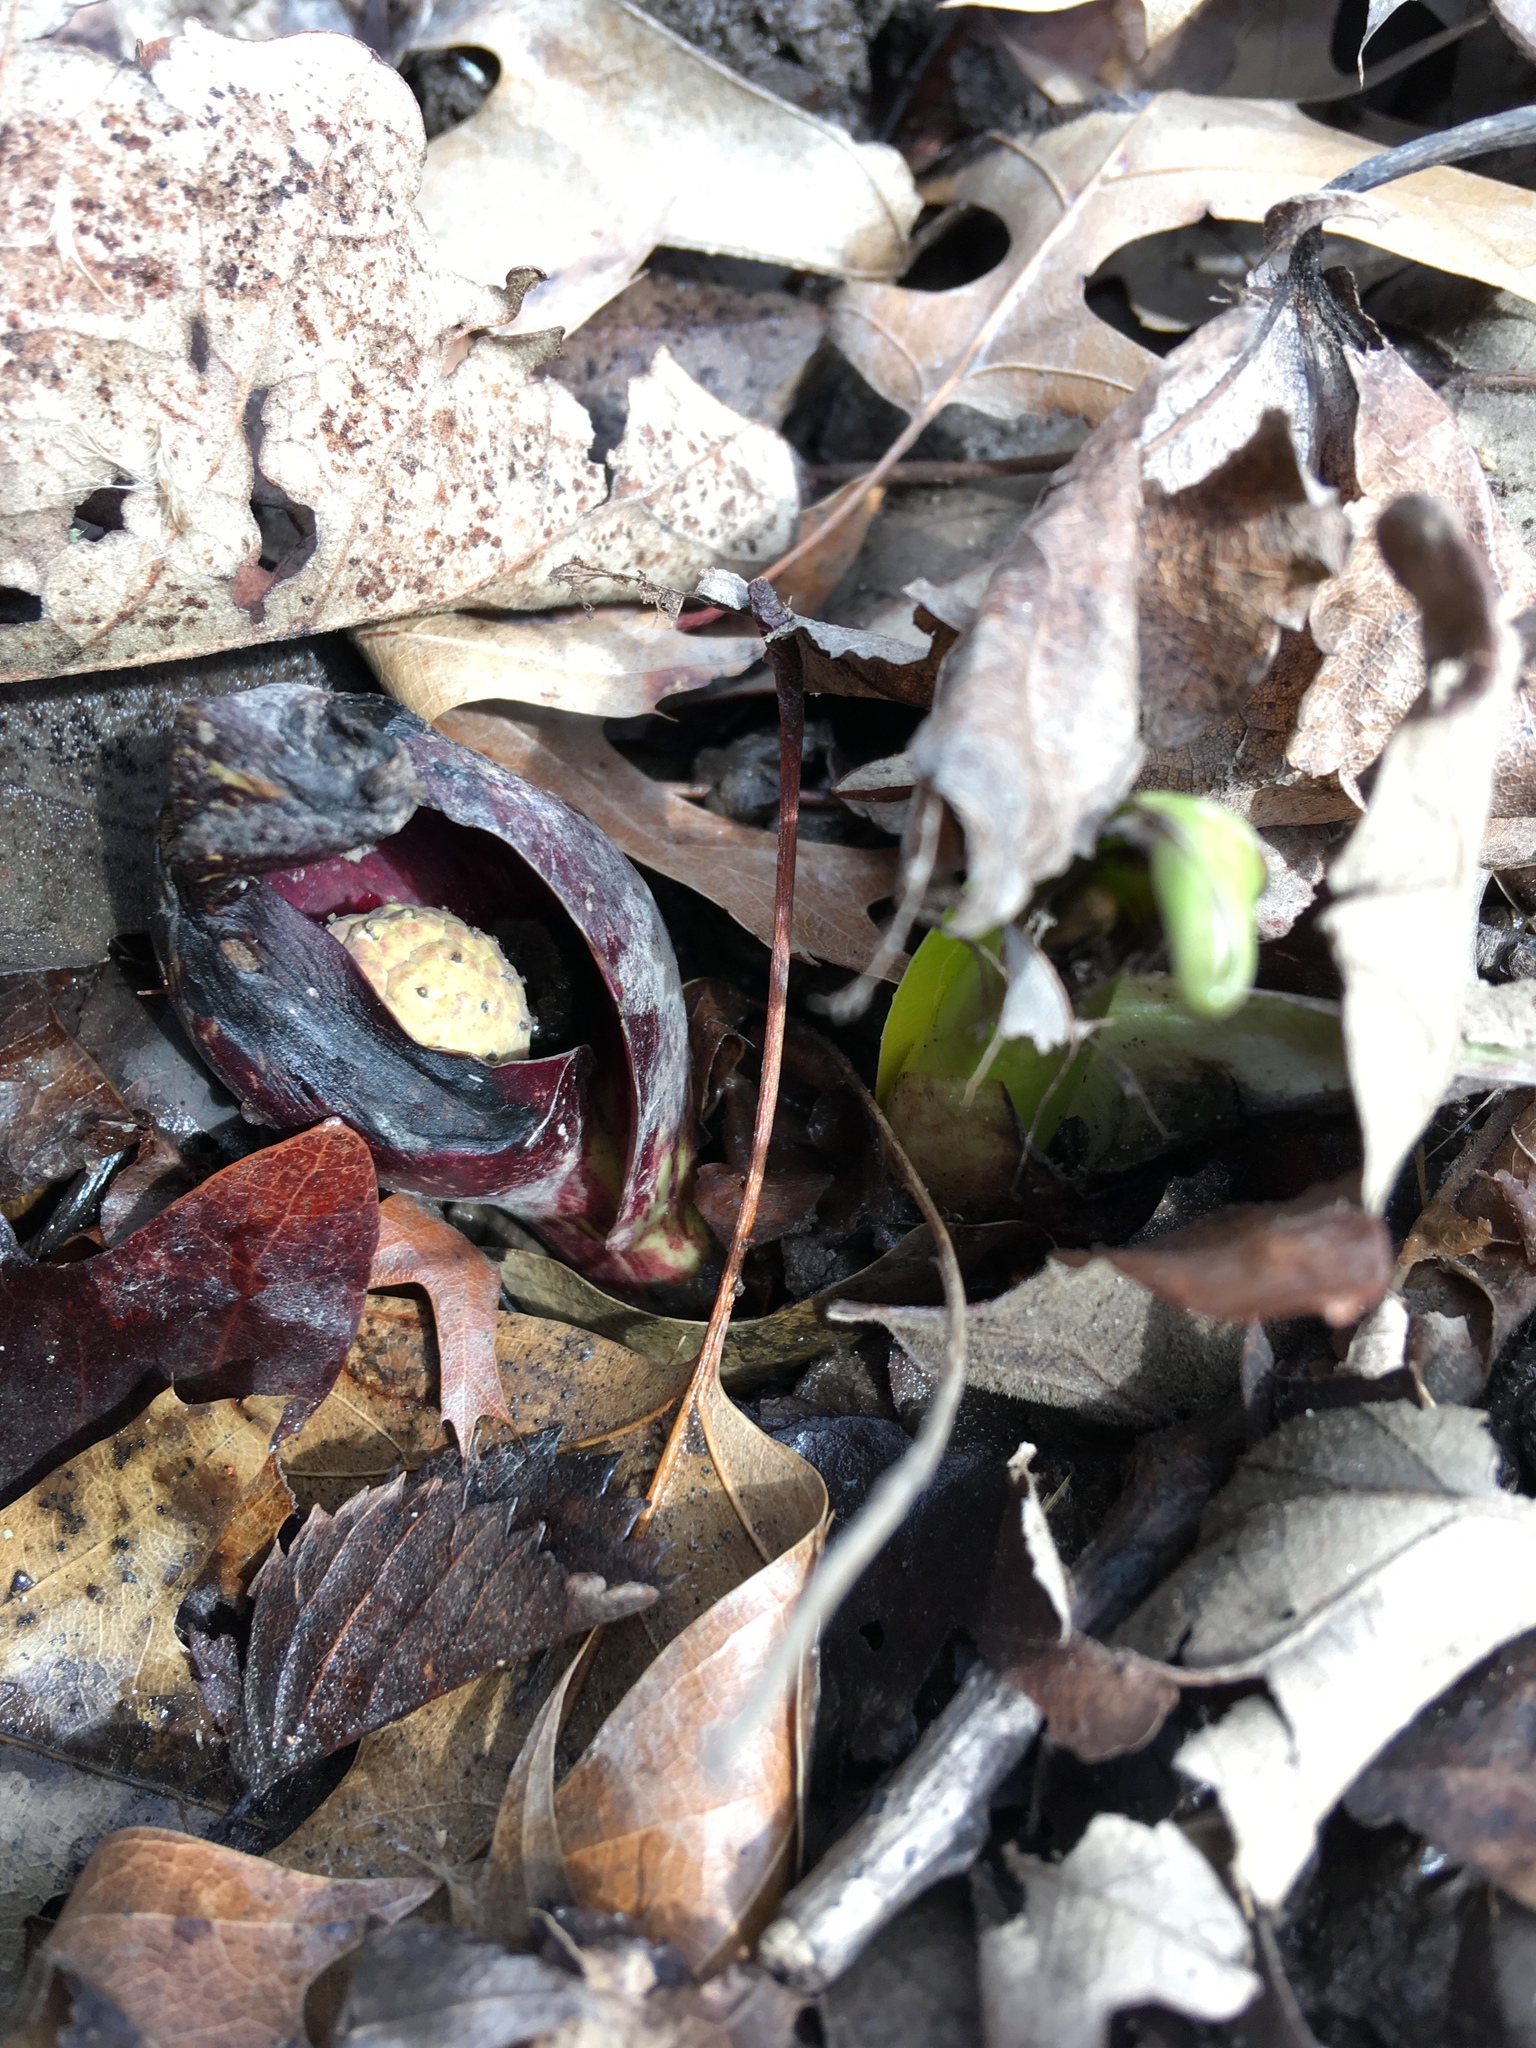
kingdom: Plantae
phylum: Tracheophyta
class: Liliopsida
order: Alismatales
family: Araceae
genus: Symplocarpus
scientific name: Symplocarpus foetidus
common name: Eastern skunk cabbage
